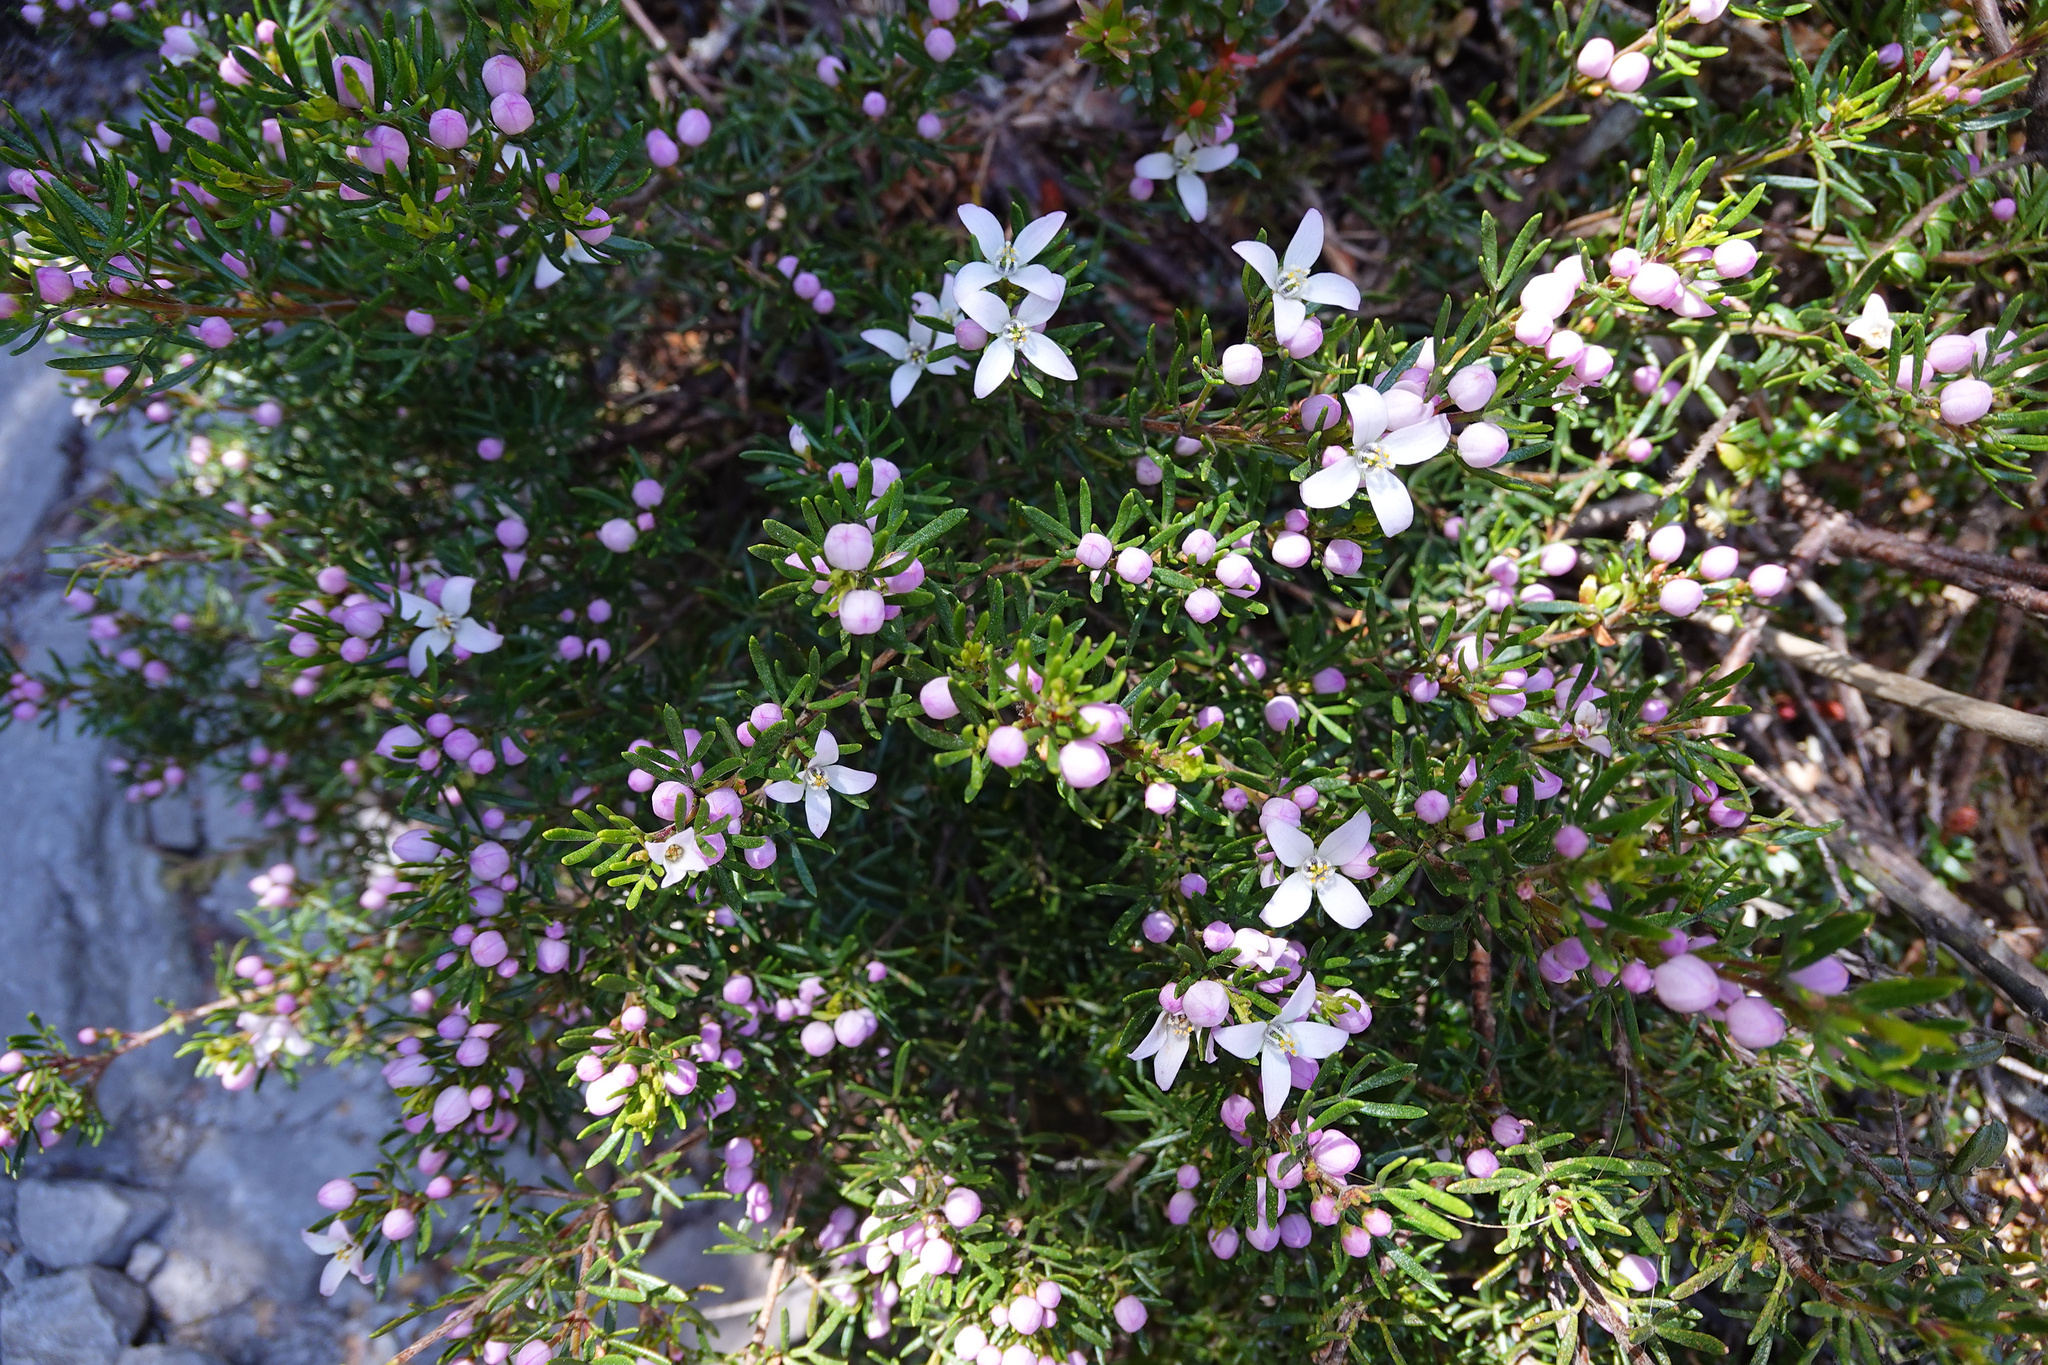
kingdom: Plantae
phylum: Tracheophyta
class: Magnoliopsida
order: Sapindales
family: Rutaceae
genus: Boronia
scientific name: Boronia citriodora
